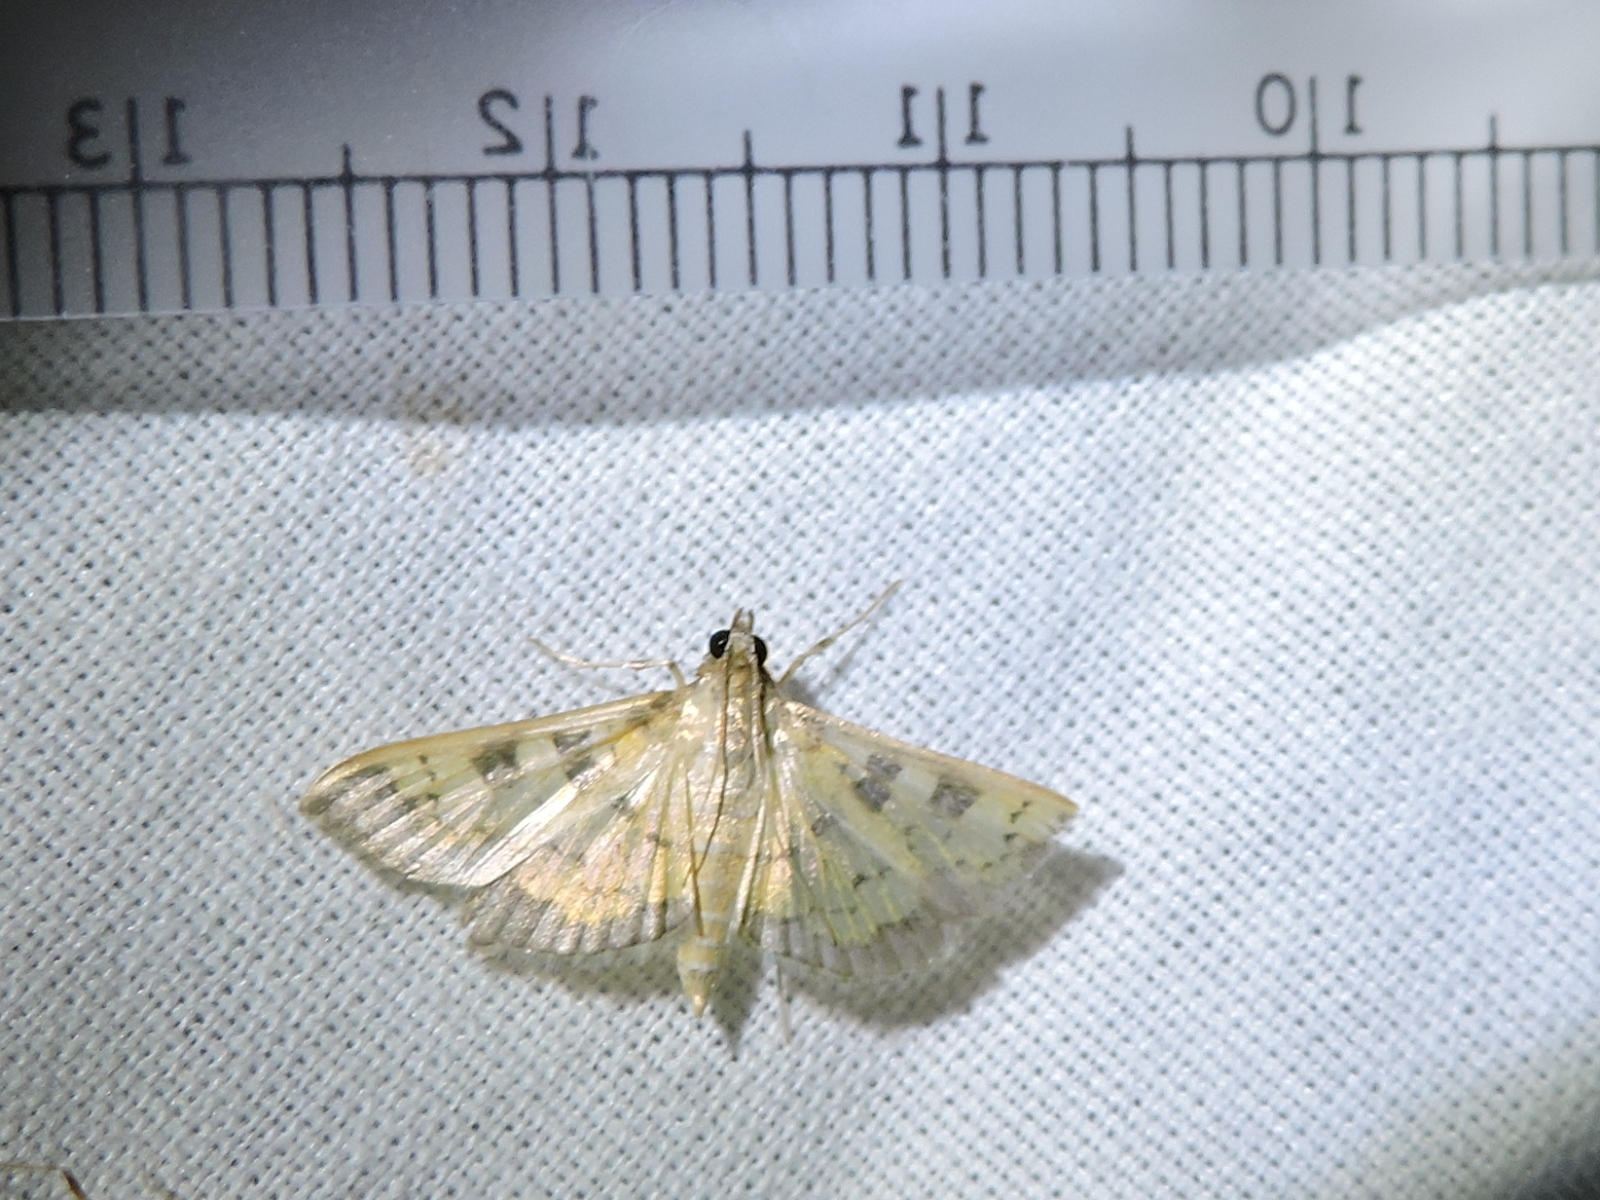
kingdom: Animalia
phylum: Arthropoda
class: Insecta
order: Lepidoptera
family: Crambidae
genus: Cryptographis
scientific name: Cryptographis elealis
